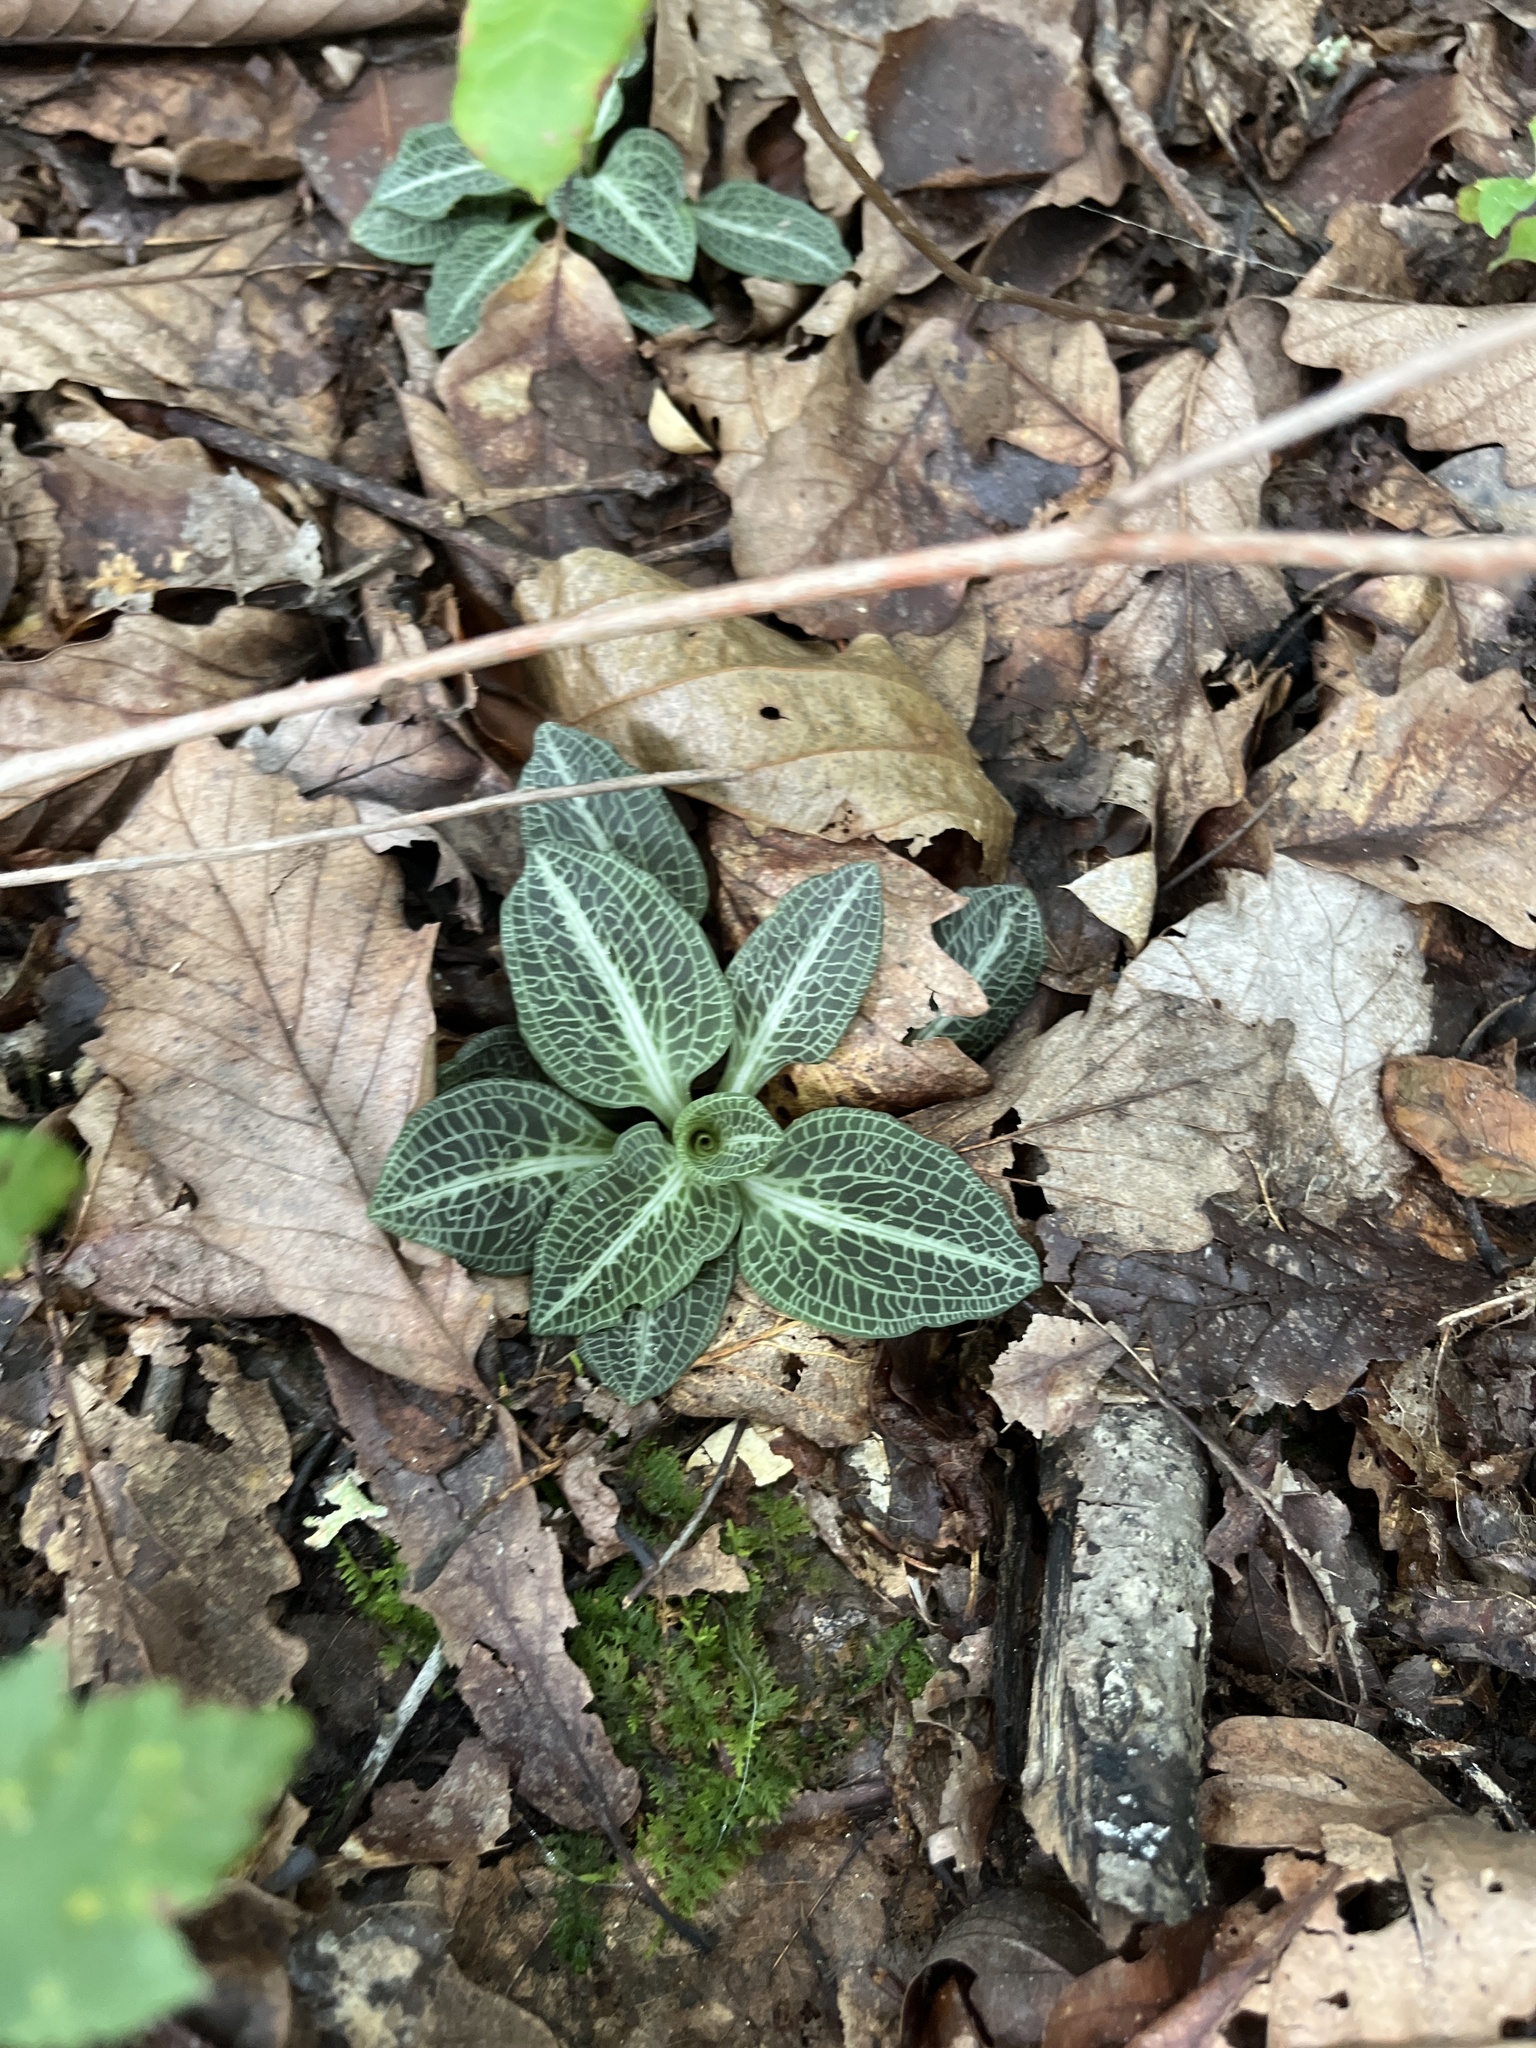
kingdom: Plantae
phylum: Tracheophyta
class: Liliopsida
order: Asparagales
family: Orchidaceae
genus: Goodyera
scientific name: Goodyera pubescens
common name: Downy rattlesnake-plantain
